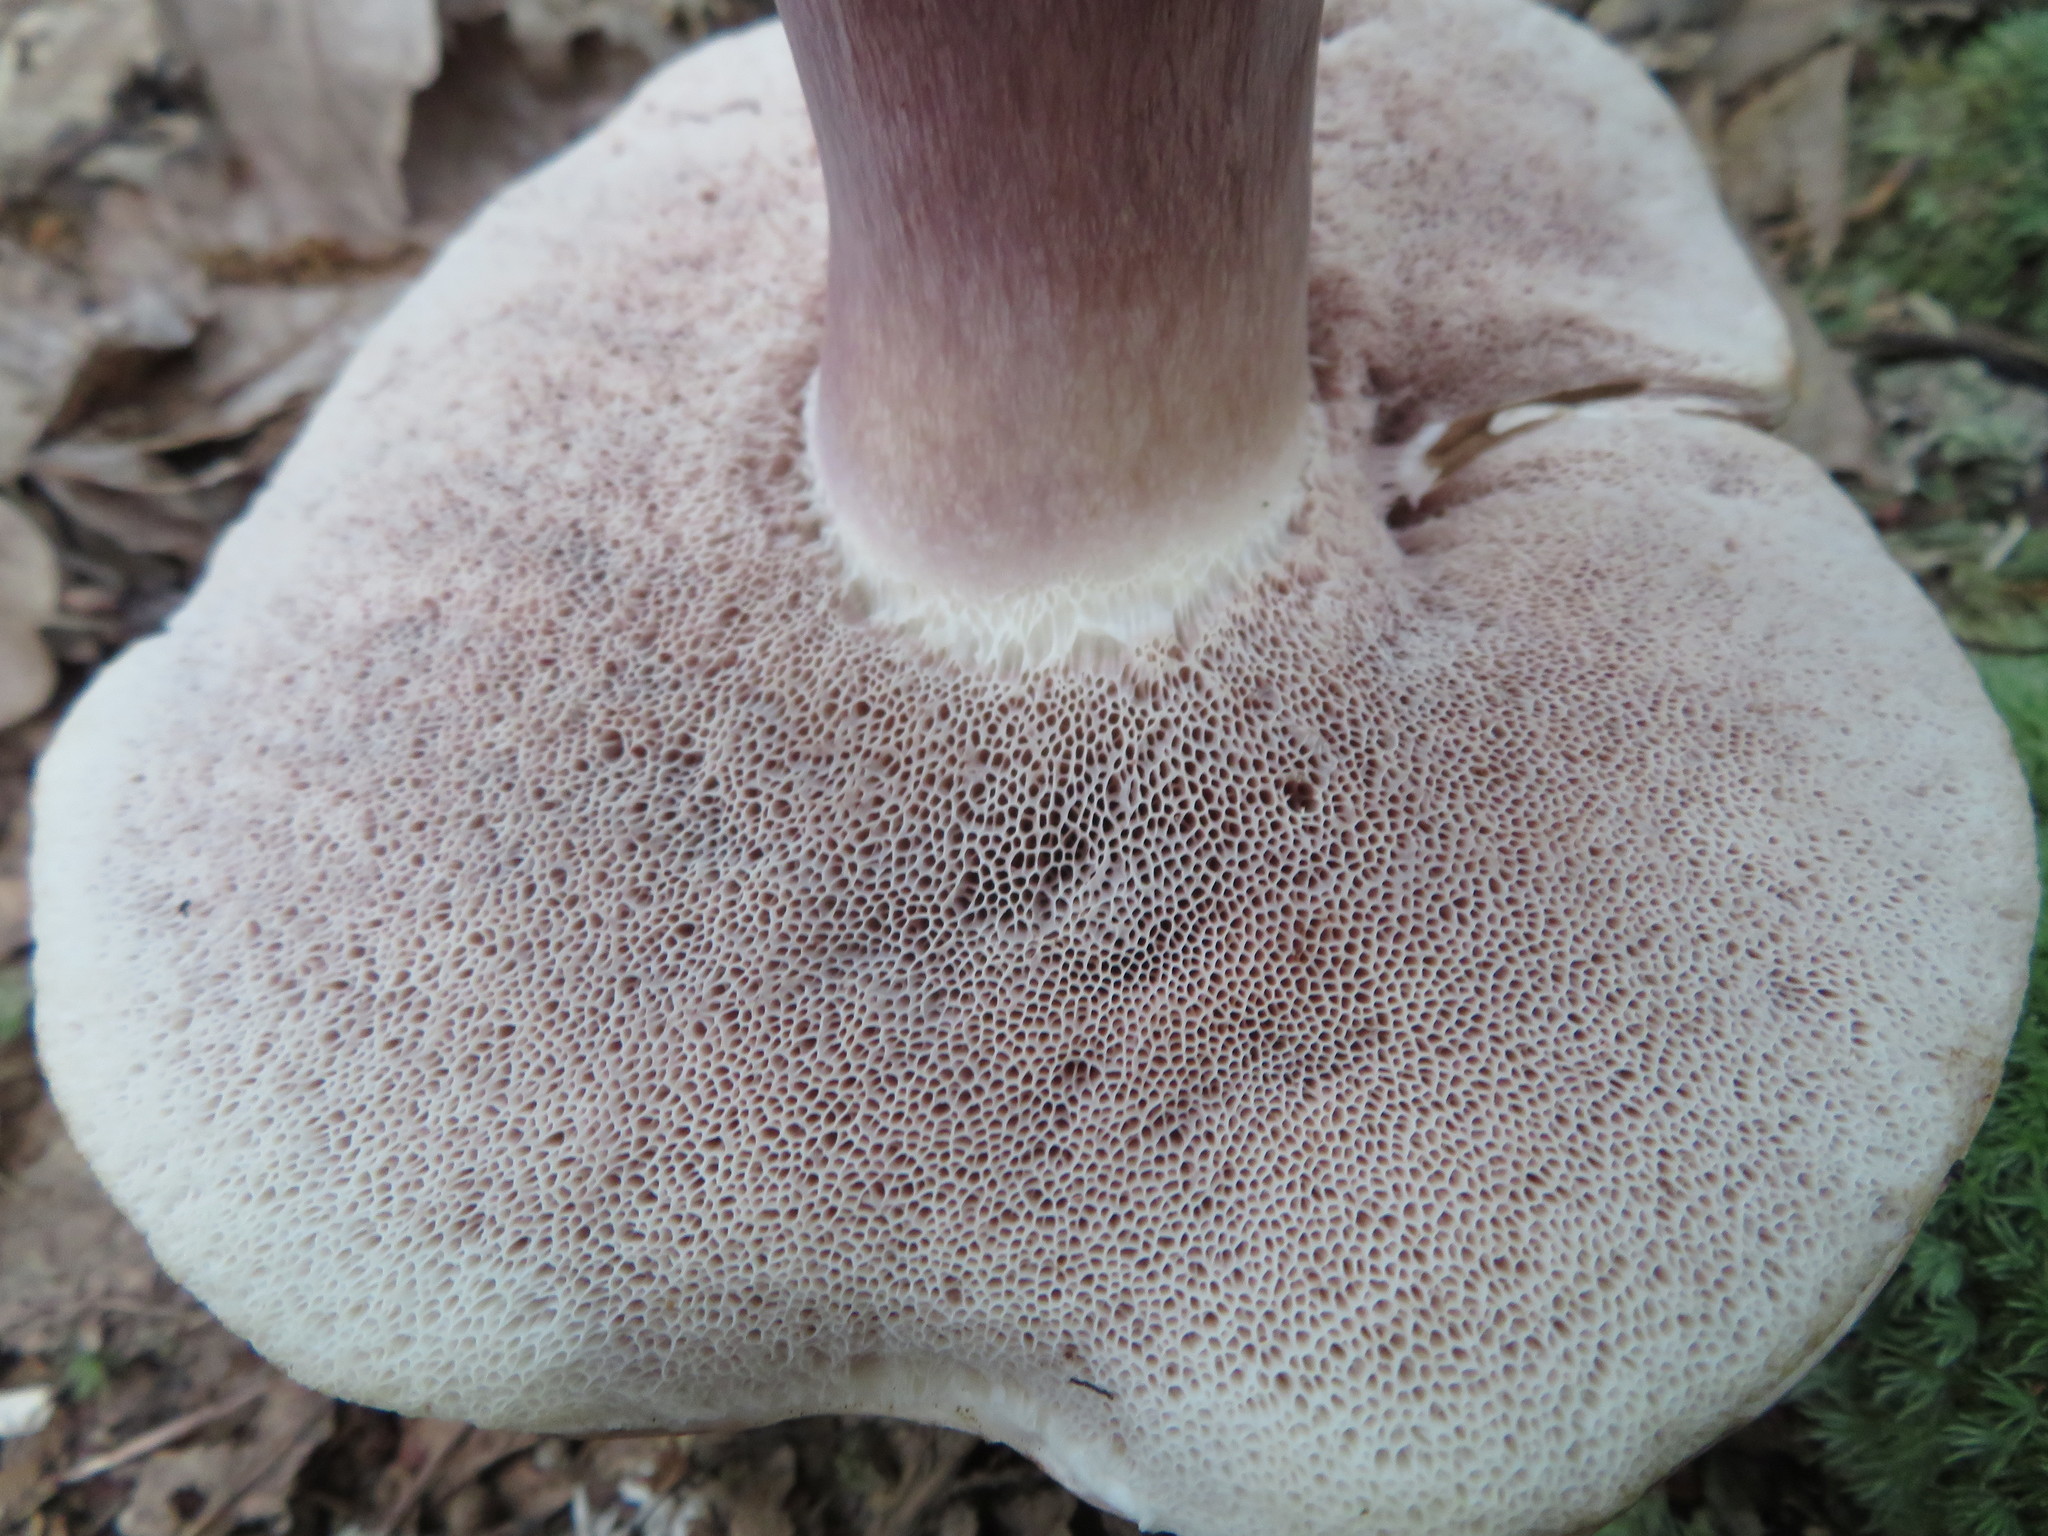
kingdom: Fungi
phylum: Basidiomycota
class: Agaricomycetes
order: Boletales
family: Boletaceae
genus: Tylopilus
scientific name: Tylopilus plumbeoviolaceus
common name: Violet gray bolete
